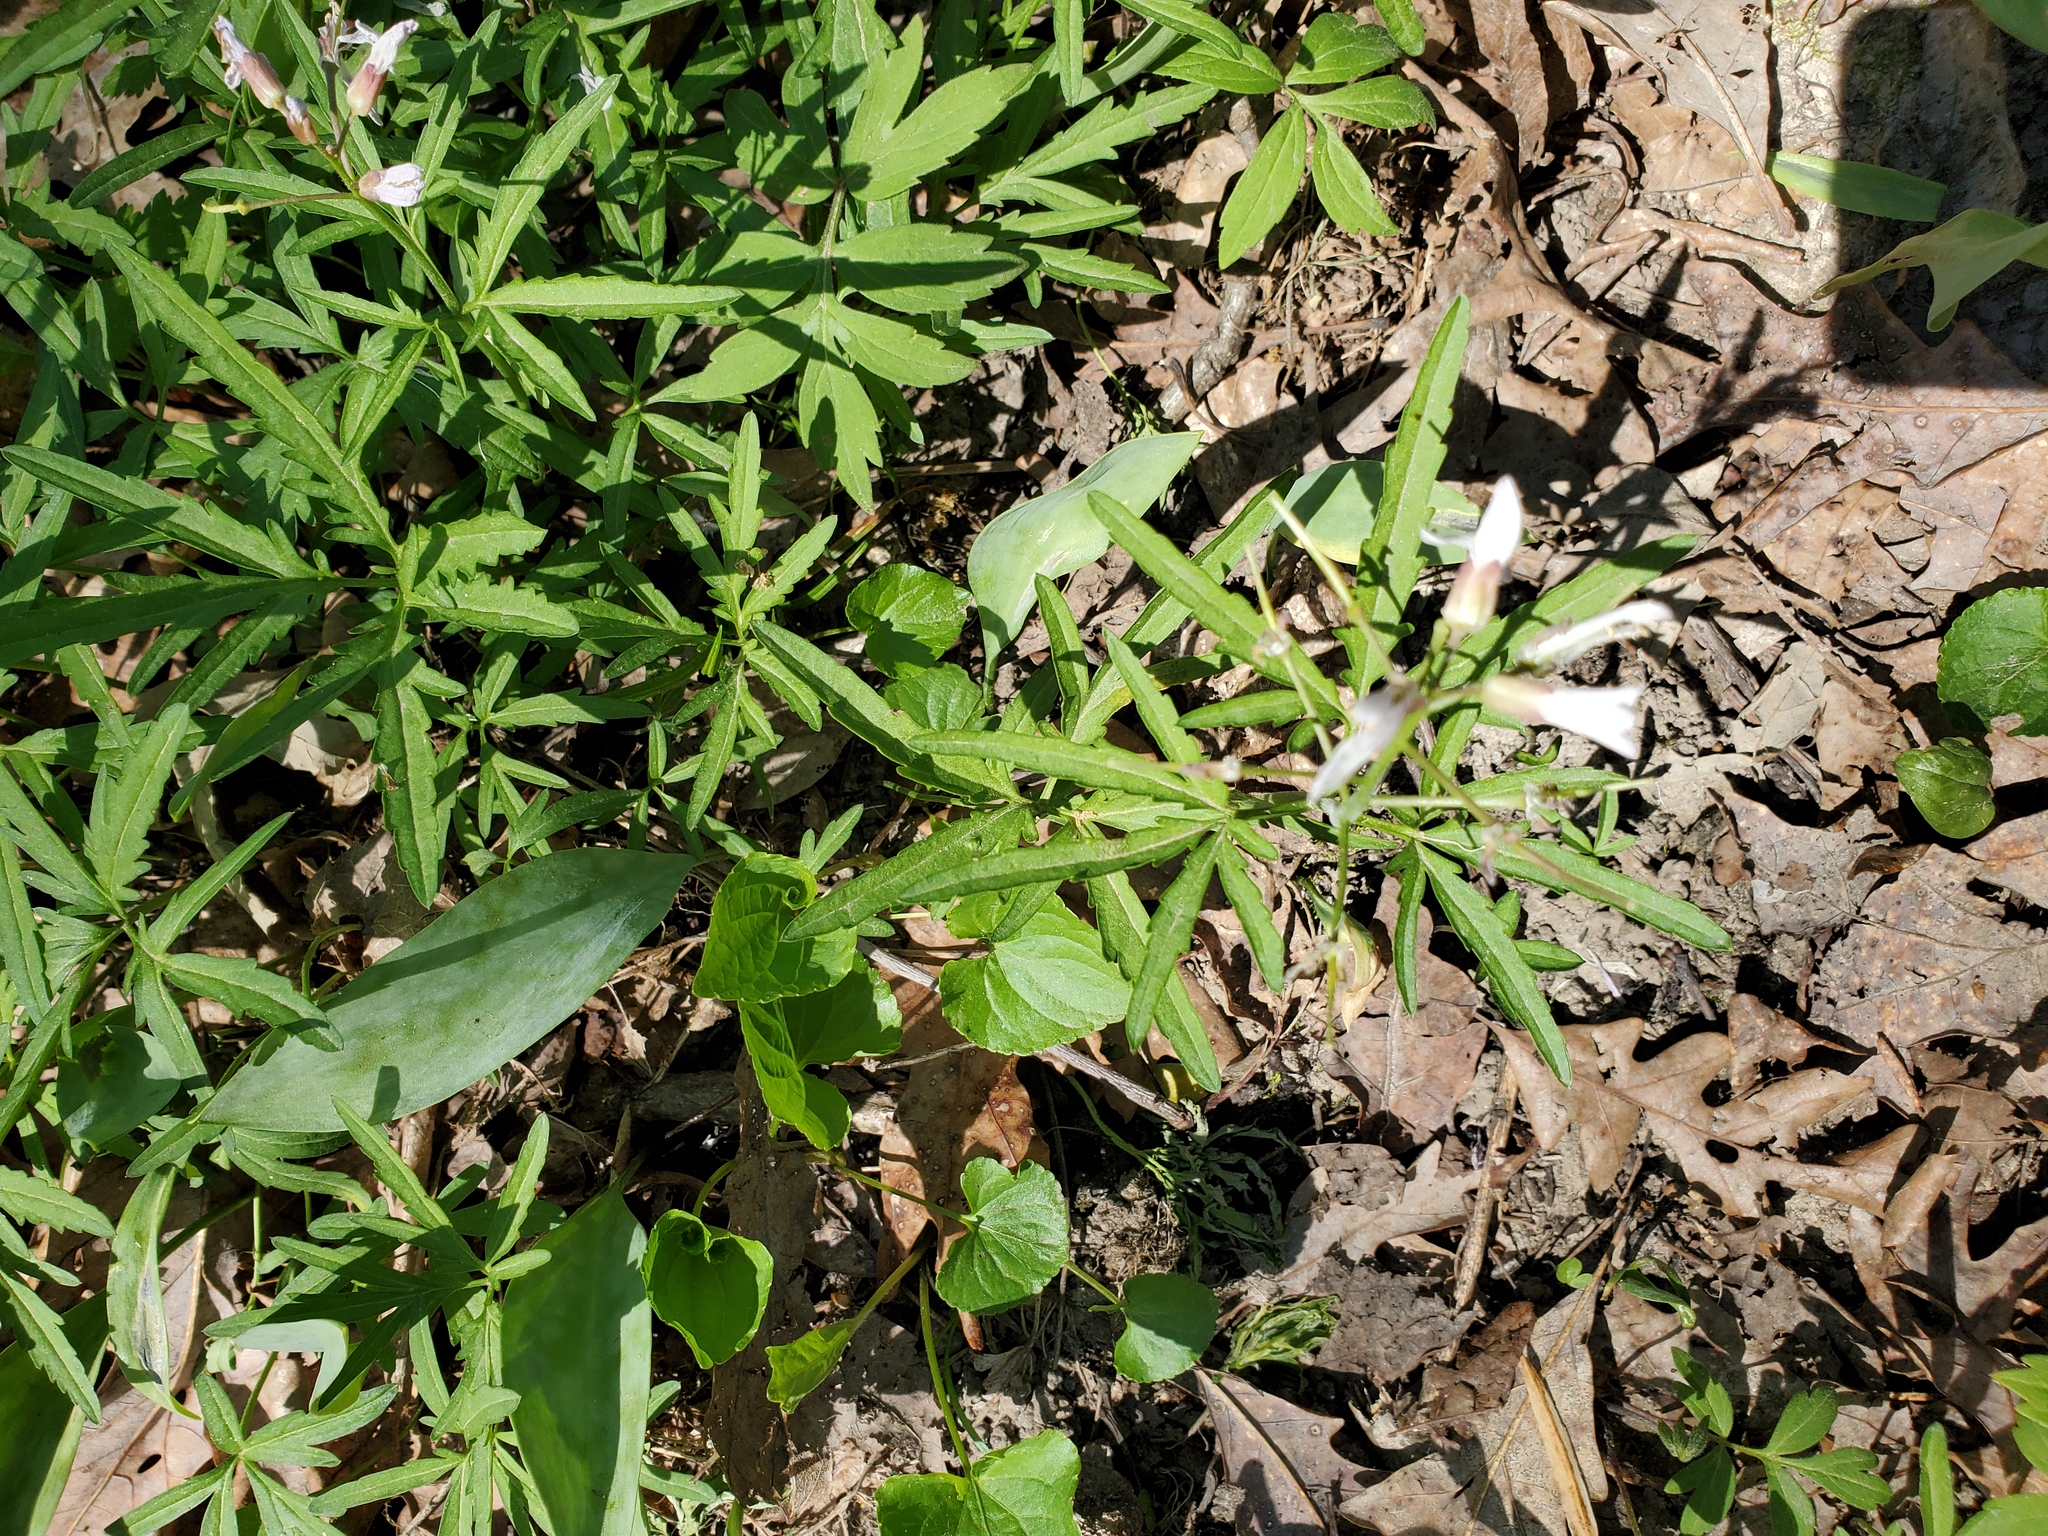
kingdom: Plantae
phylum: Tracheophyta
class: Magnoliopsida
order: Brassicales
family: Brassicaceae
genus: Cardamine
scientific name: Cardamine concatenata
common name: Cut-leaf toothcup
